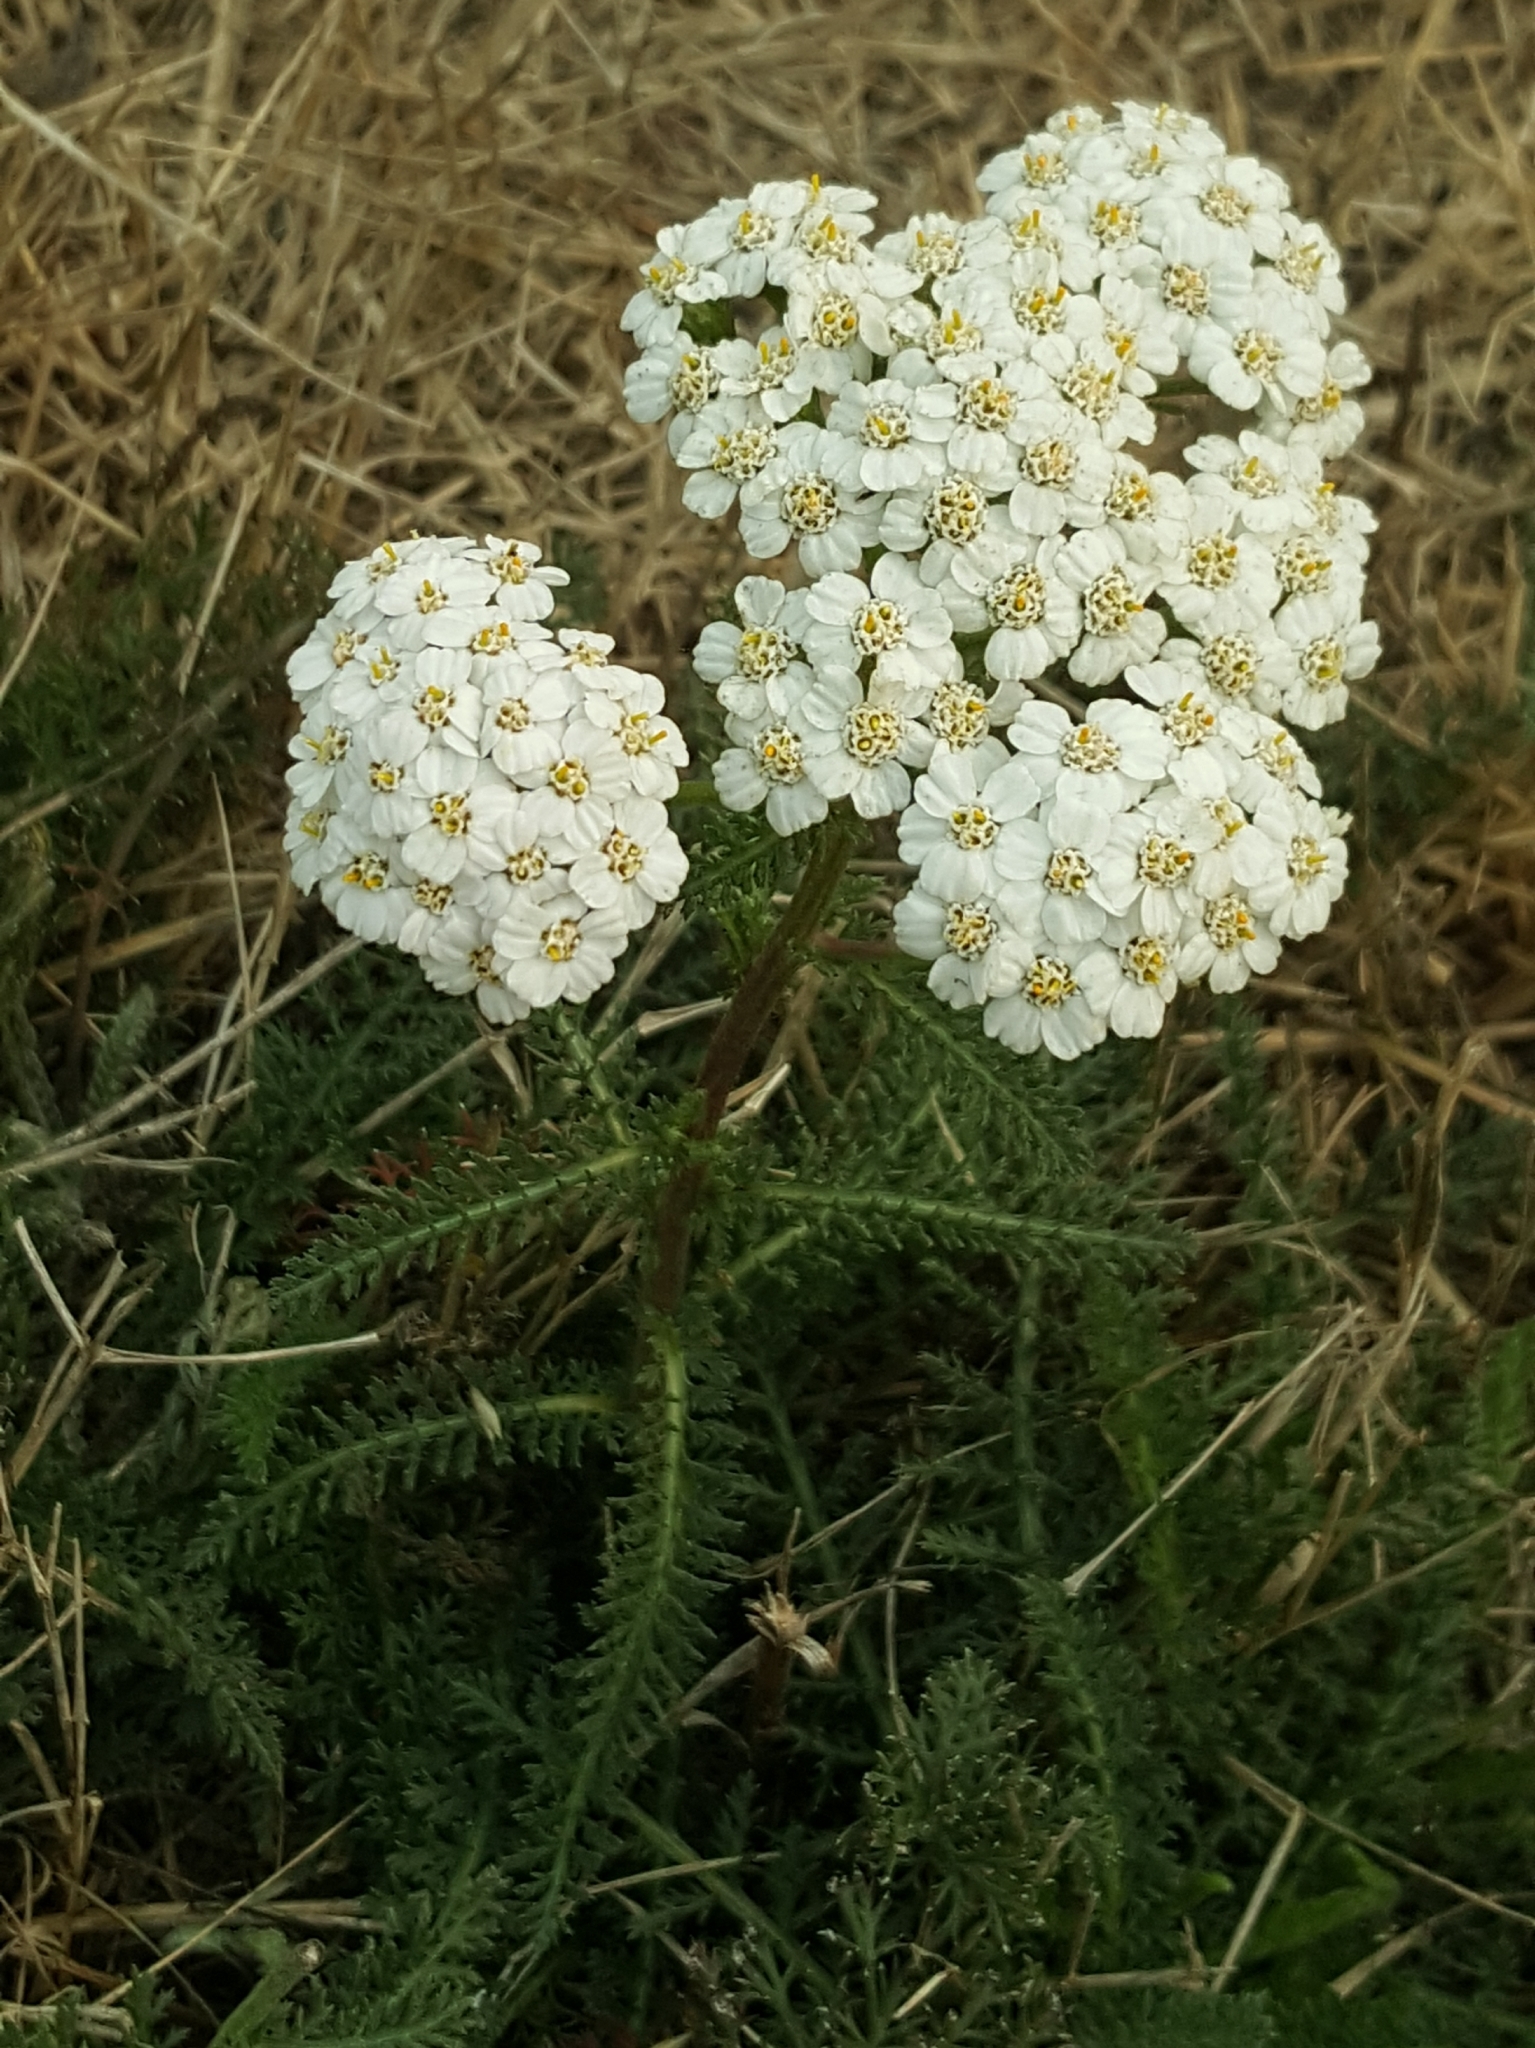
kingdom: Plantae
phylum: Tracheophyta
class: Magnoliopsida
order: Asterales
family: Asteraceae
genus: Achillea
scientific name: Achillea millefolium
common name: Yarrow
